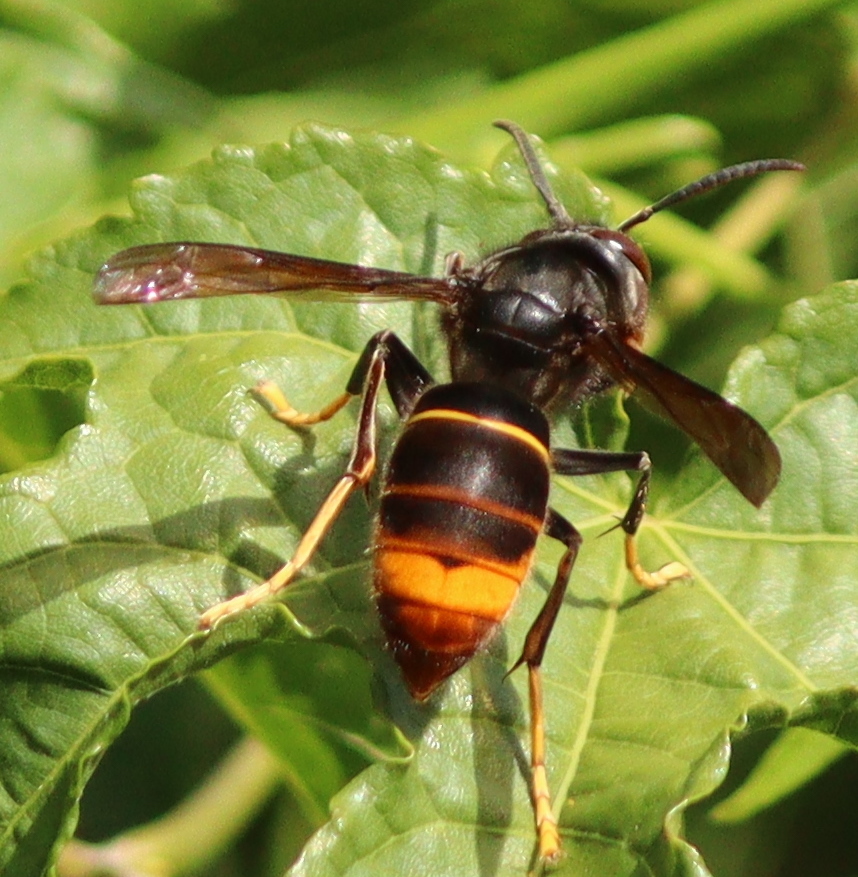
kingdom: Animalia
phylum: Arthropoda
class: Insecta
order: Hymenoptera
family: Vespidae
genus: Vespa
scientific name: Vespa velutina
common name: Asian hornet
